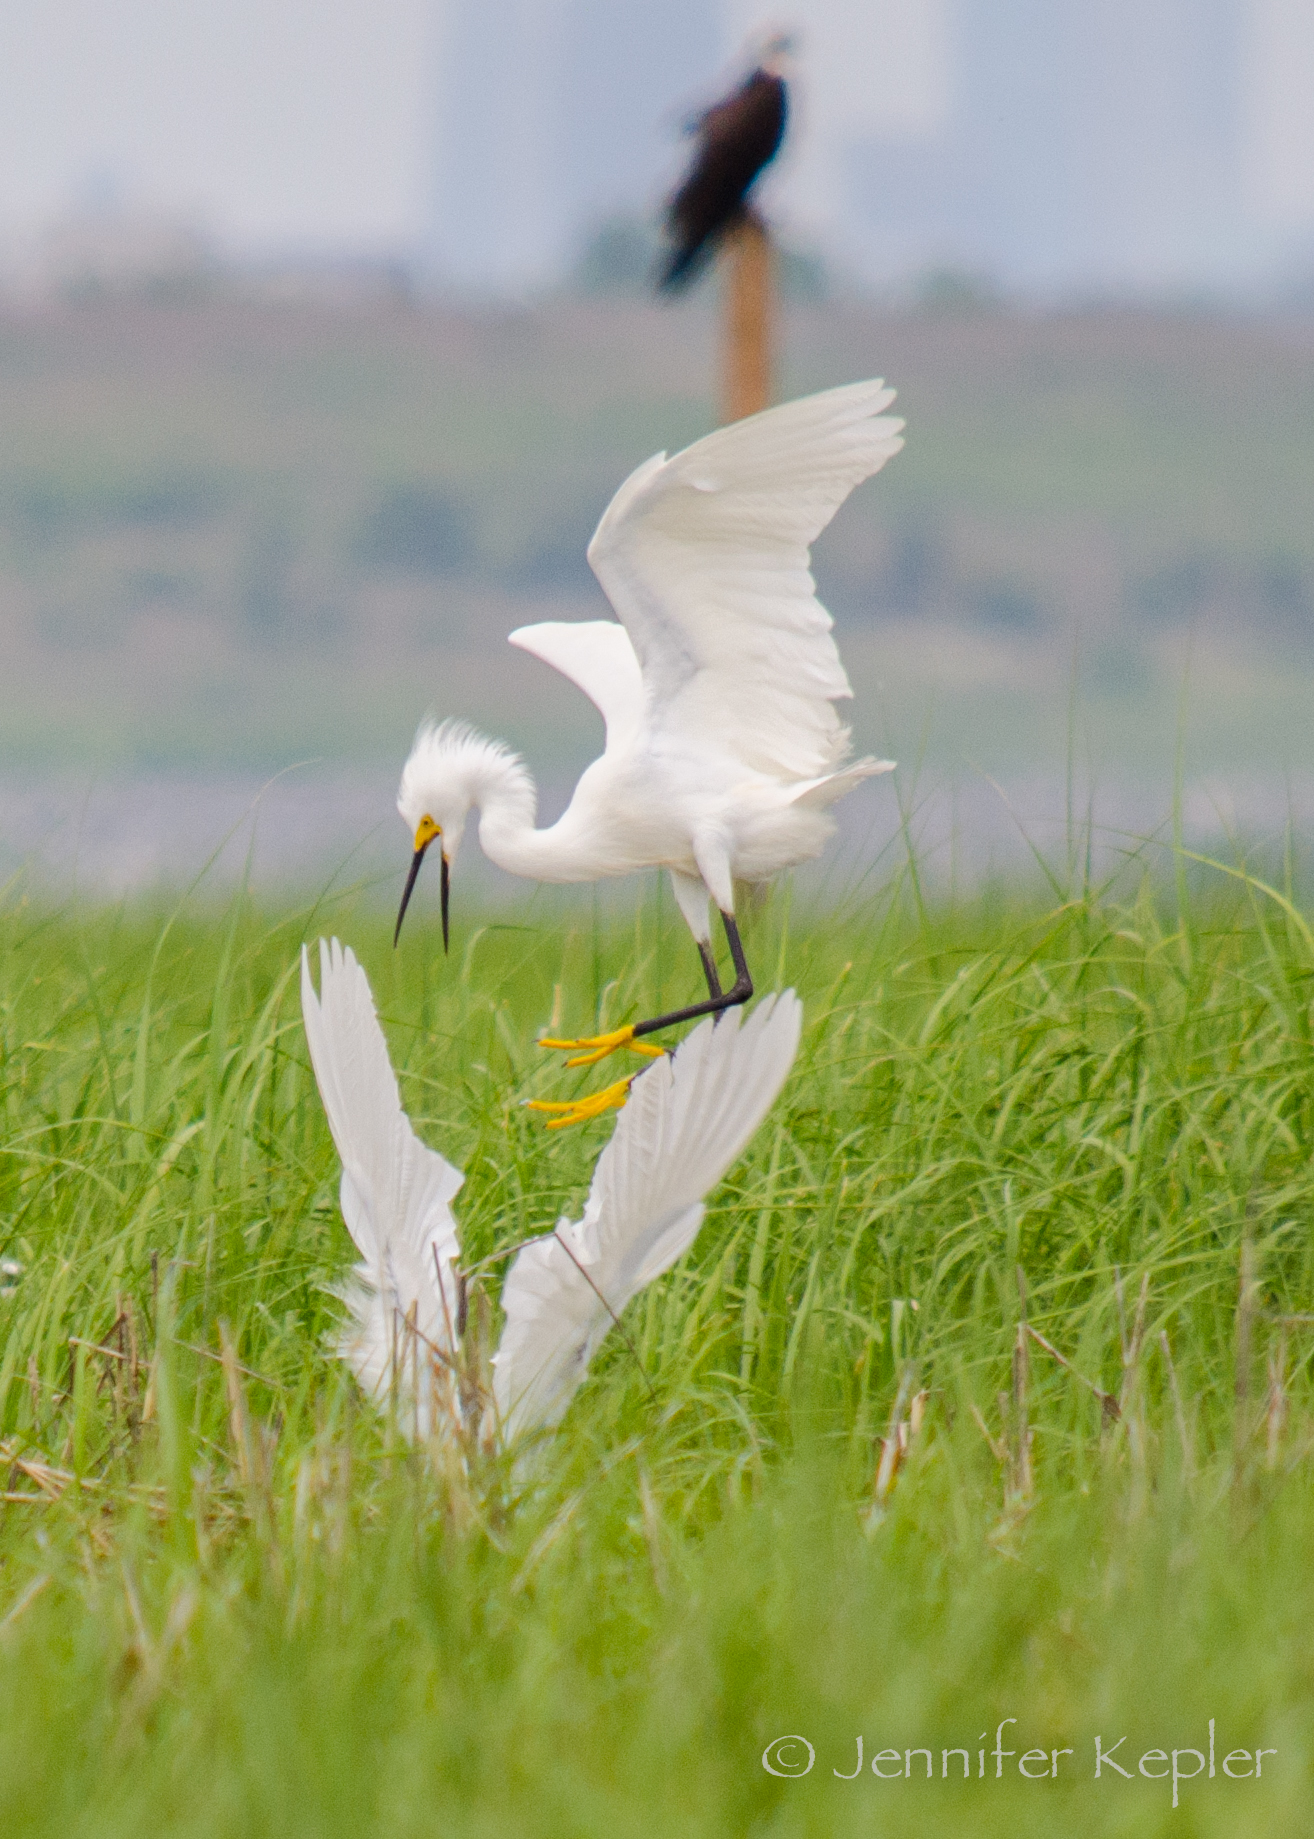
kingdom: Animalia
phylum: Chordata
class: Aves
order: Pelecaniformes
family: Ardeidae
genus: Egretta
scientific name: Egretta thula
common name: Snowy egret
